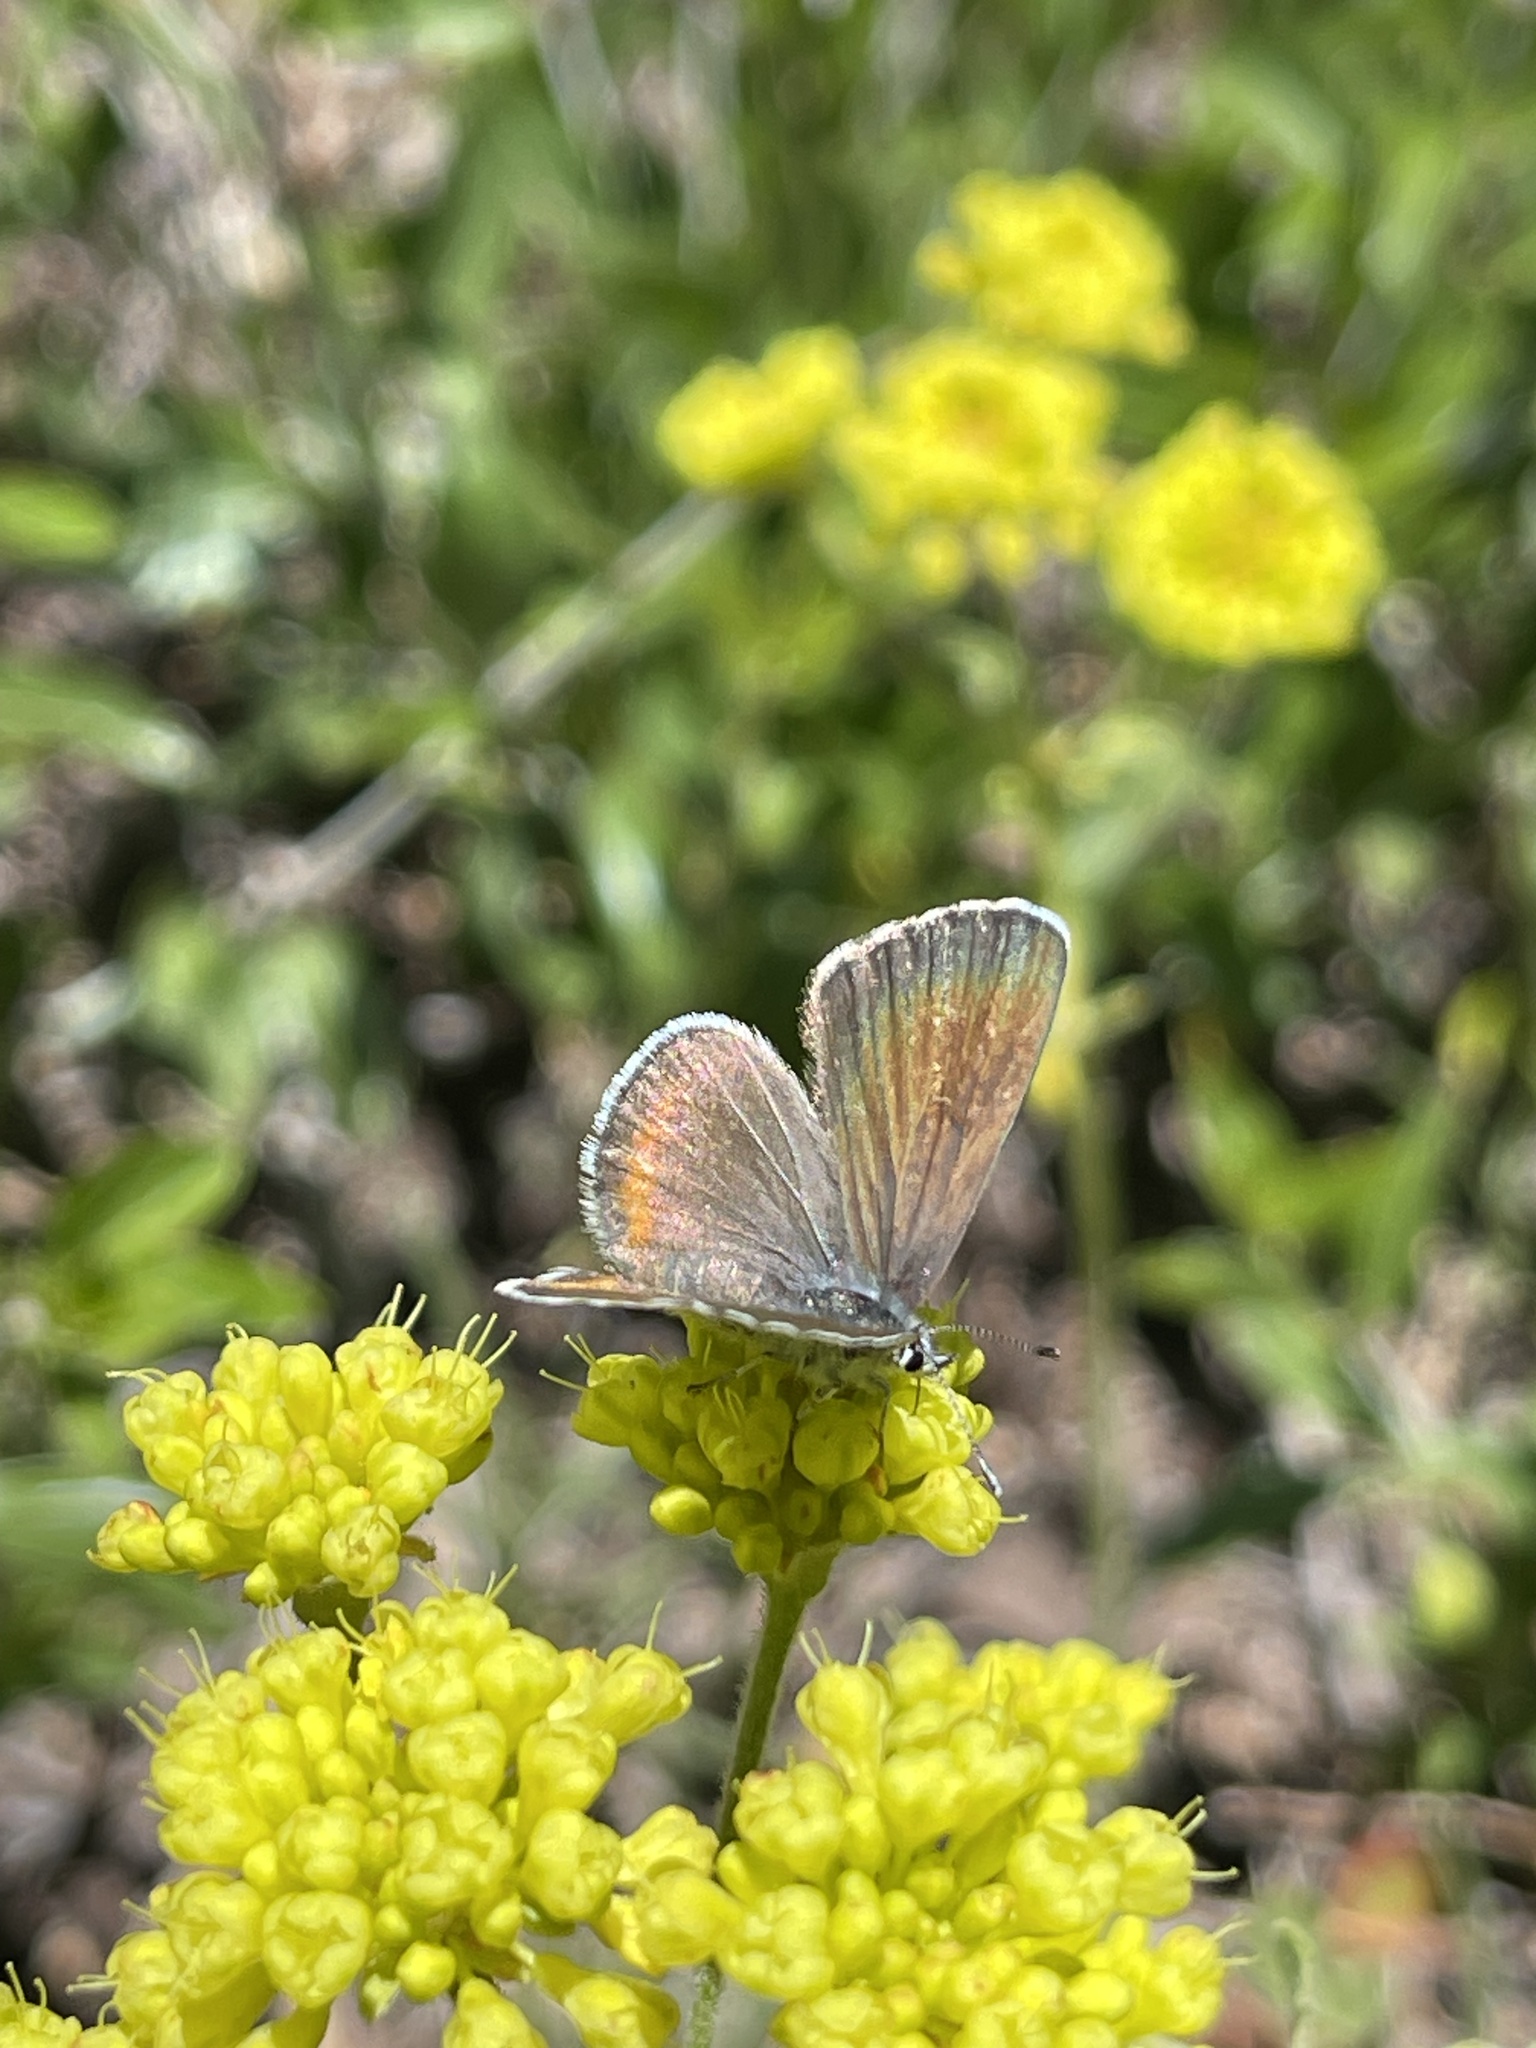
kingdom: Animalia
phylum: Arthropoda
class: Insecta
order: Lepidoptera
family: Lycaenidae
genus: Euphilotes
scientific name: Euphilotes enoptes
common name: Dotted blue
